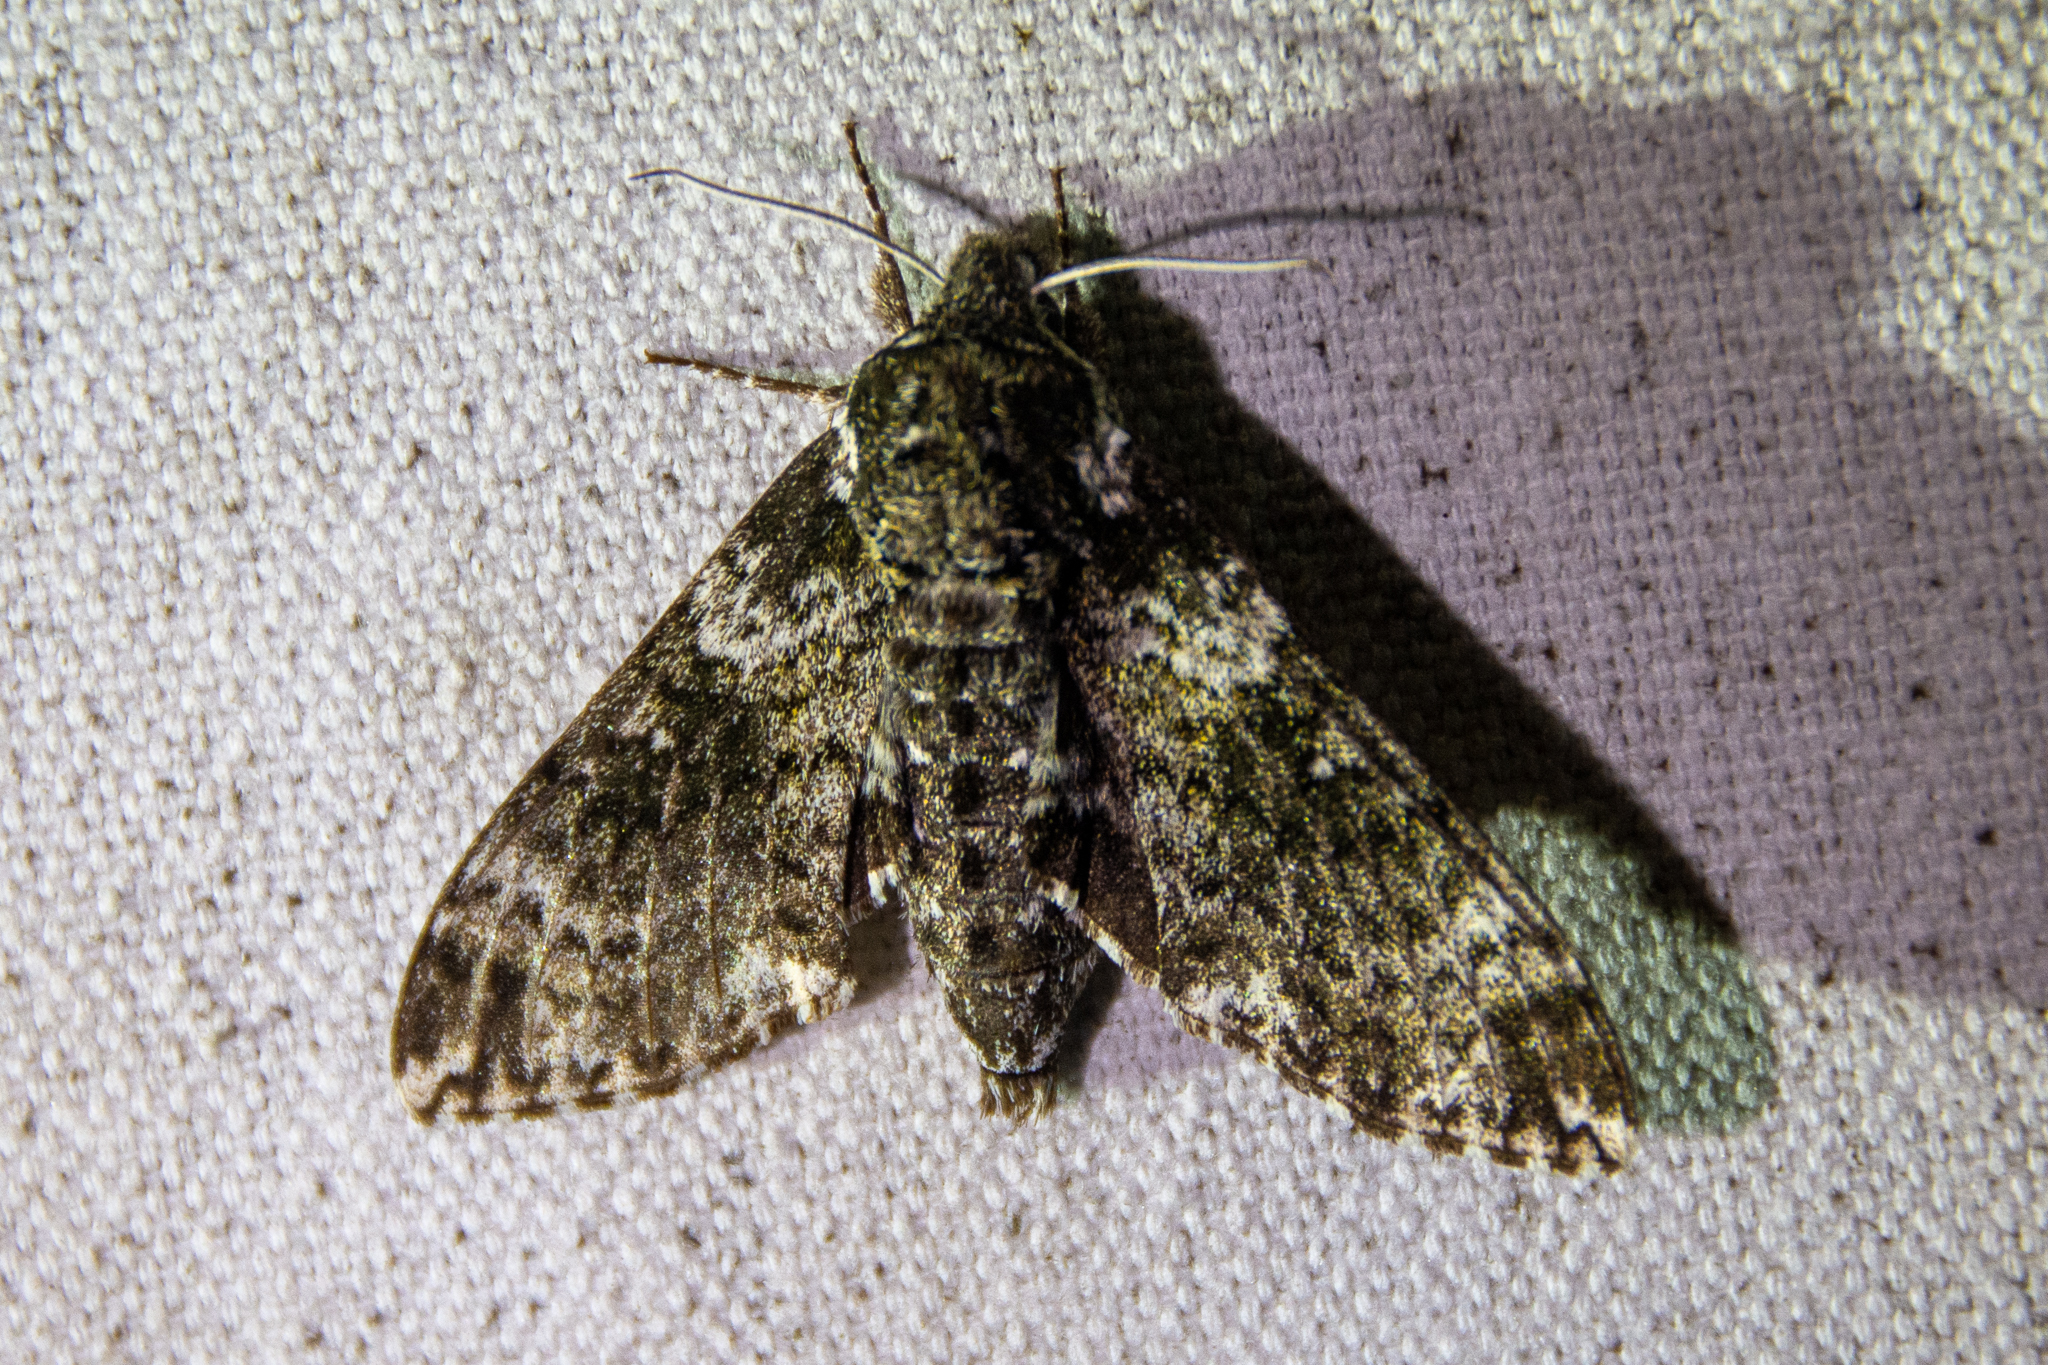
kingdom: Animalia
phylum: Arthropoda
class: Insecta
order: Lepidoptera
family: Sphingidae
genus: Dolba
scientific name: Dolba hyloeus
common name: Pawpaw sphinx
